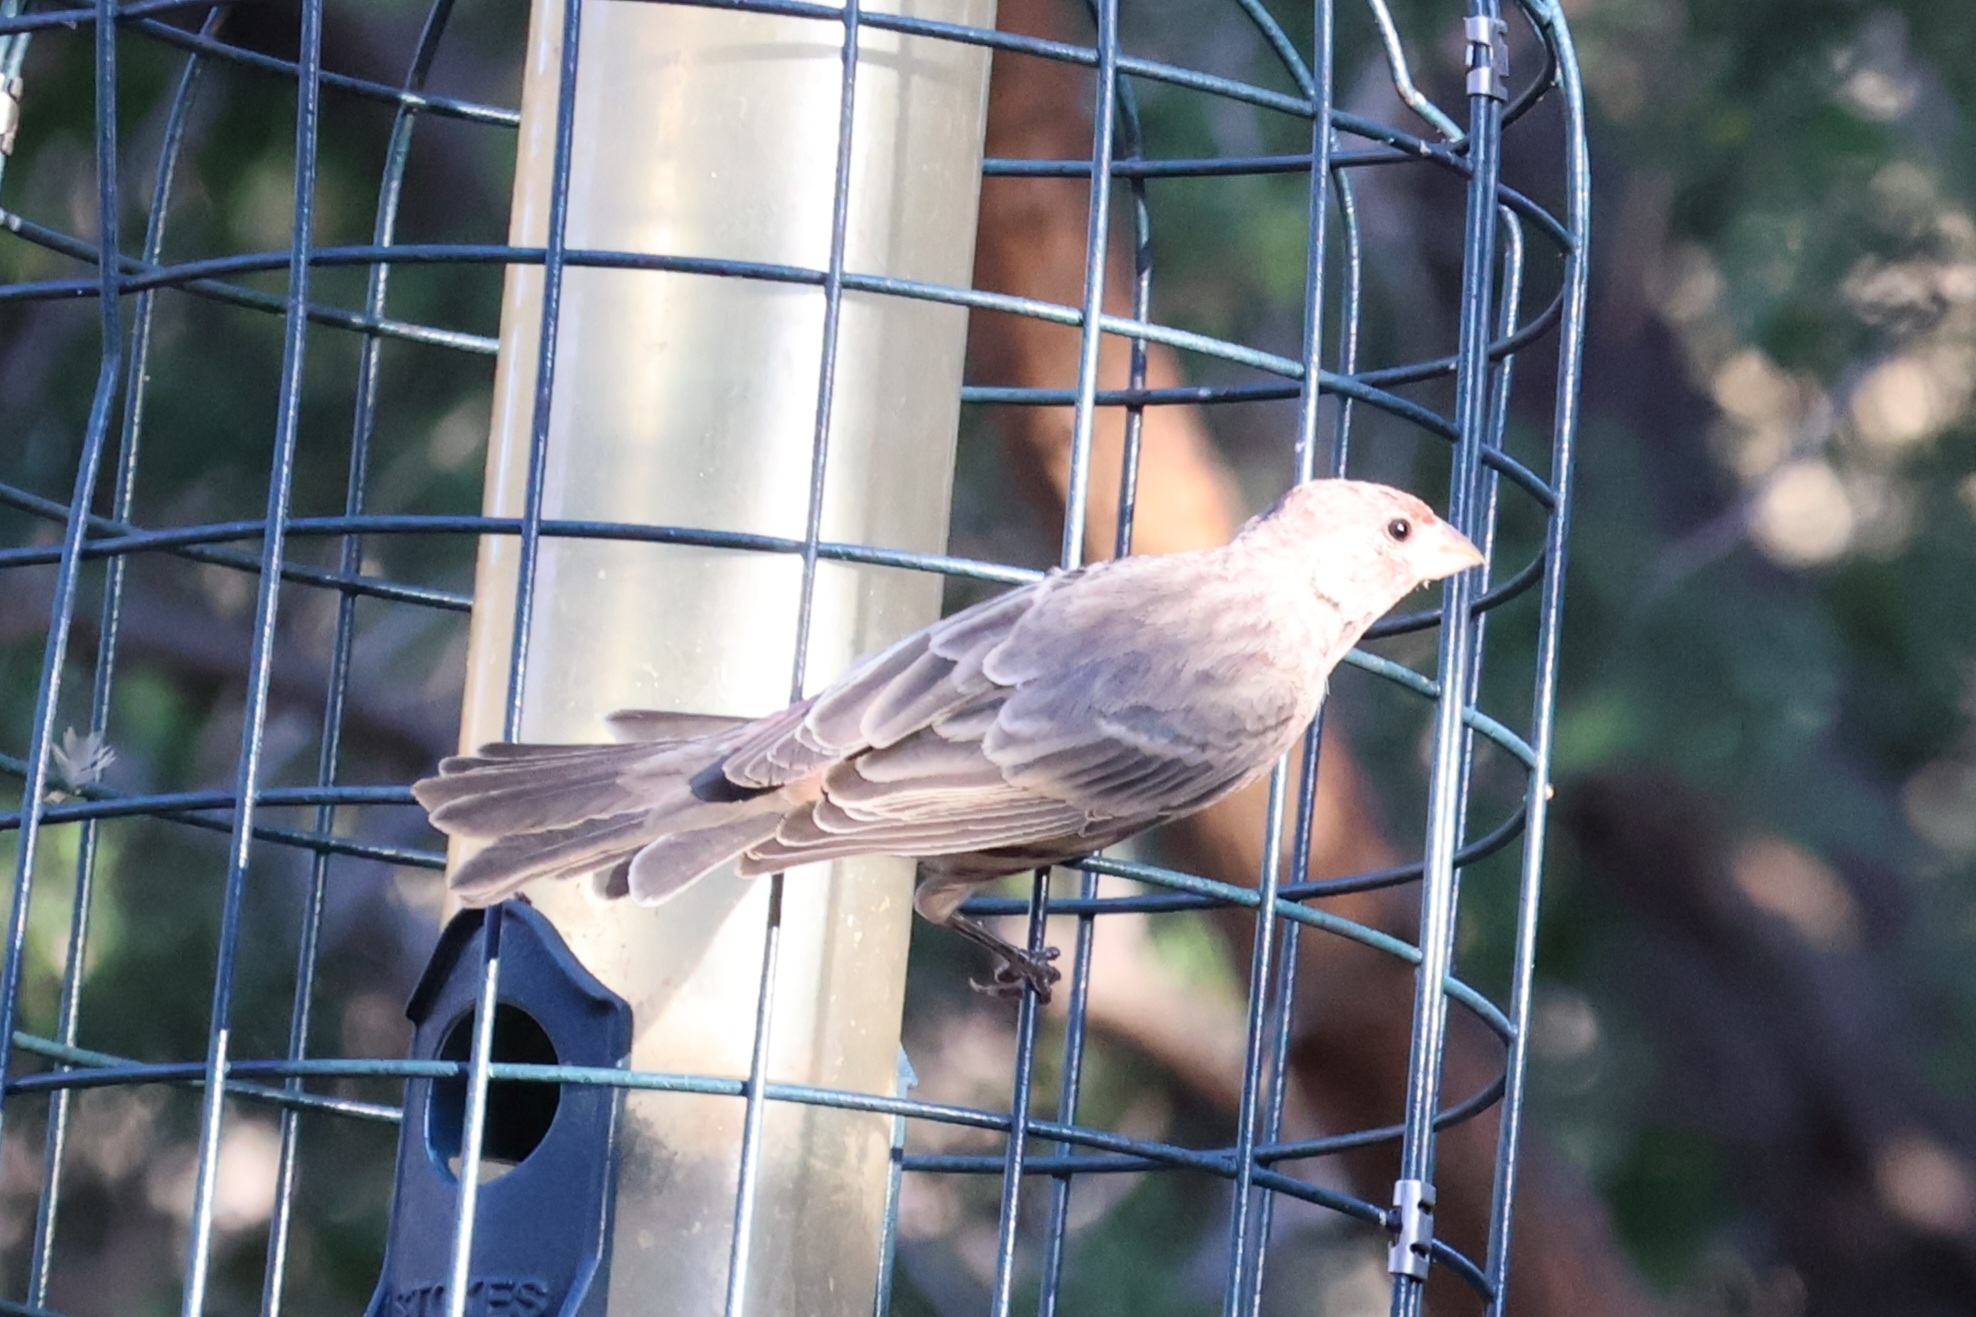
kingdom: Animalia
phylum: Chordata
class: Aves
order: Passeriformes
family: Fringillidae
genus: Haemorhous
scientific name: Haemorhous mexicanus
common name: House finch
